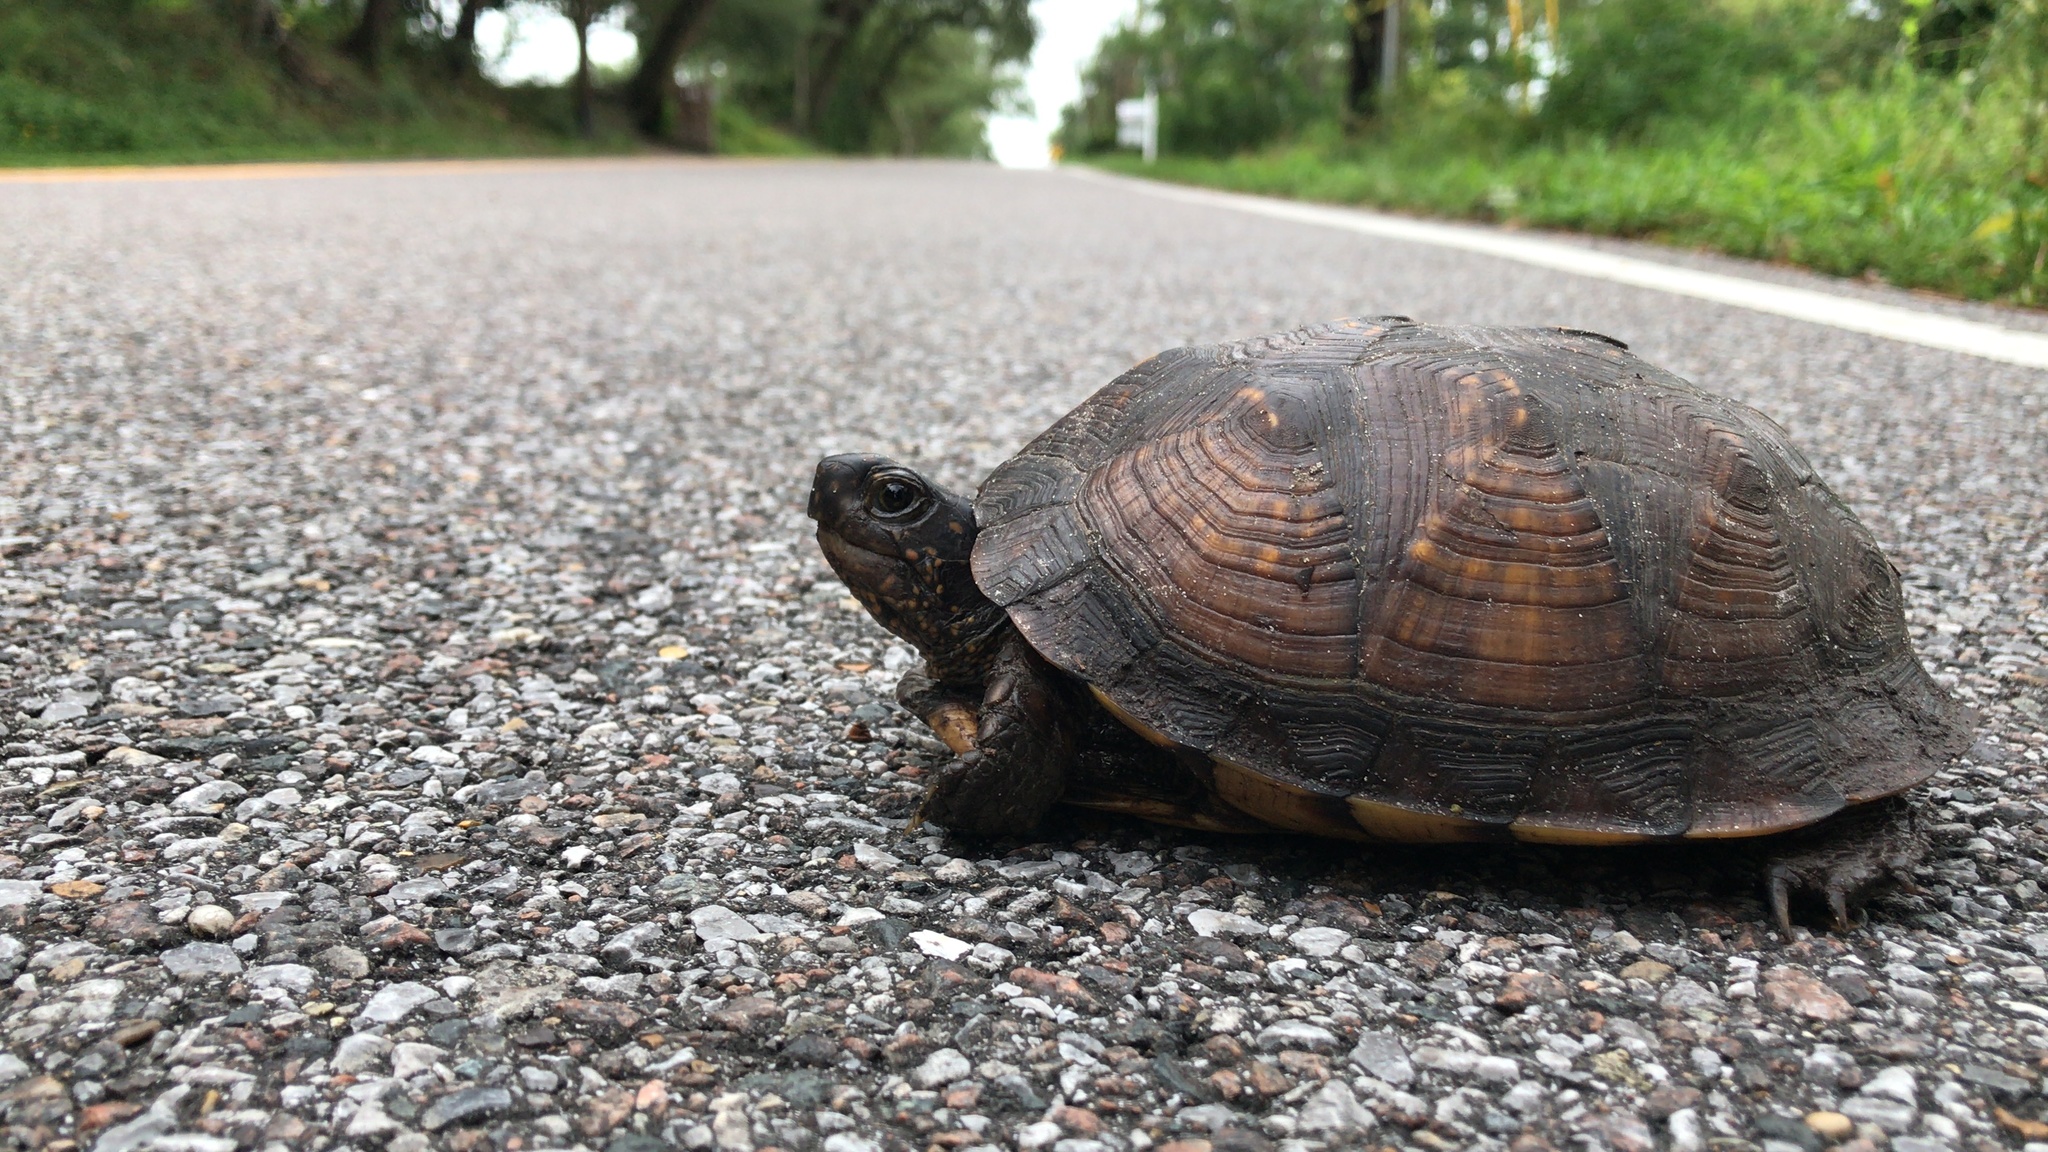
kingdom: Animalia
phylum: Chordata
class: Testudines
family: Emydidae
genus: Terrapene
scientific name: Terrapene carolina
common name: Common box turtle
